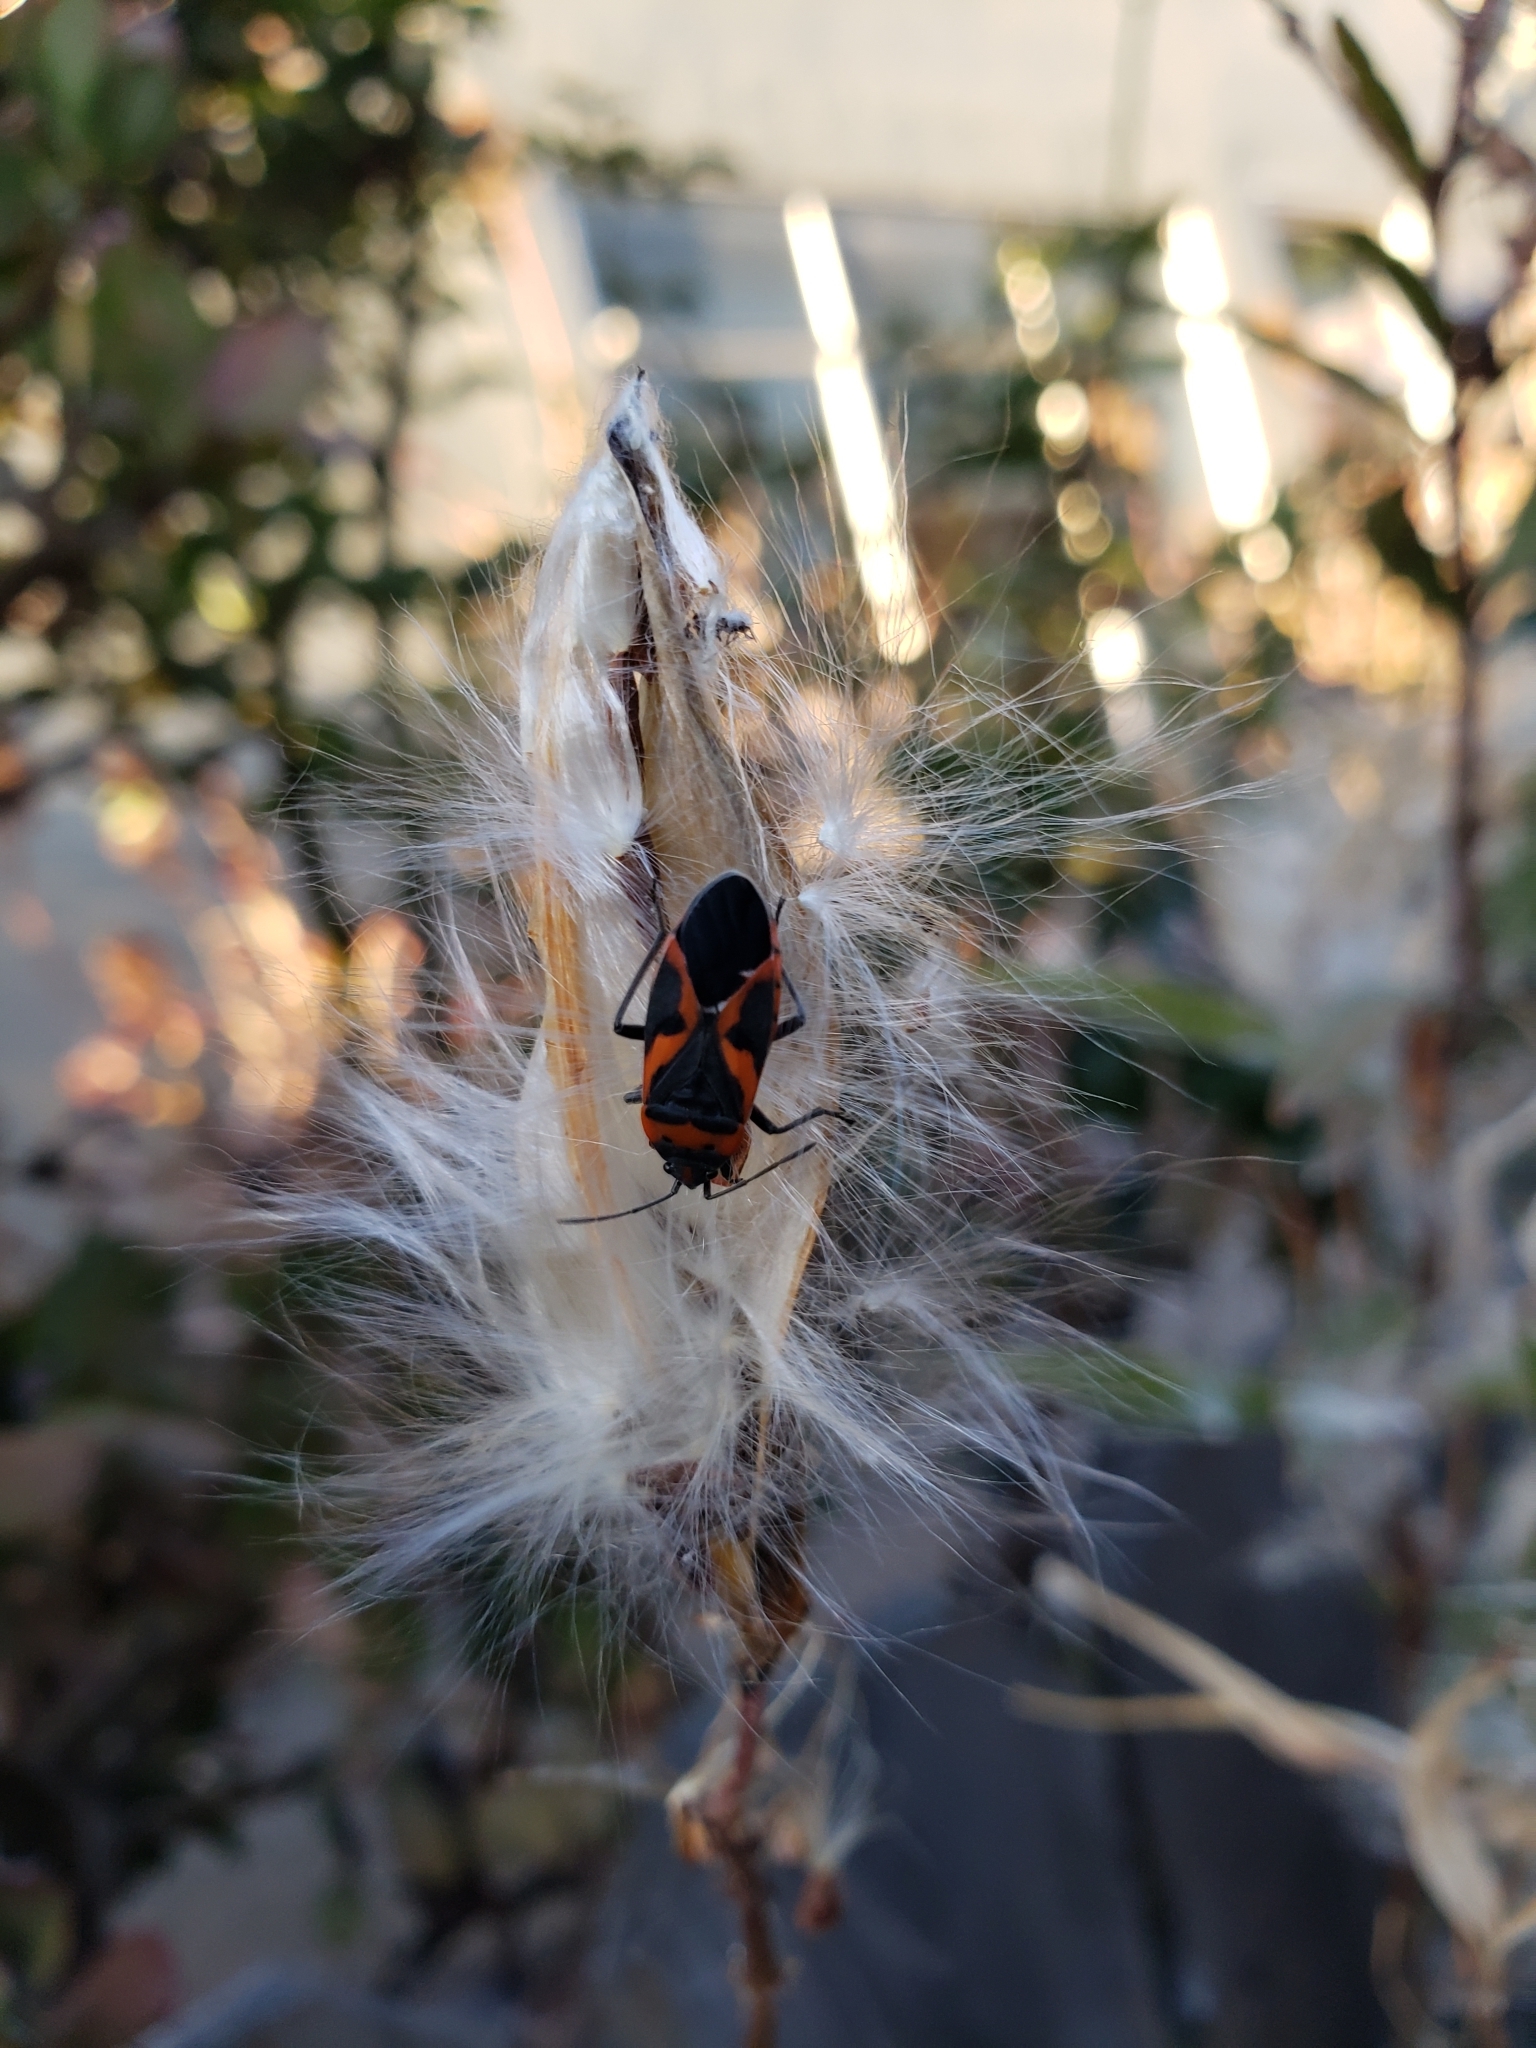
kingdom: Animalia
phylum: Arthropoda
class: Insecta
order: Hemiptera
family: Lygaeidae
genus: Lygaeus
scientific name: Lygaeus kalmii
